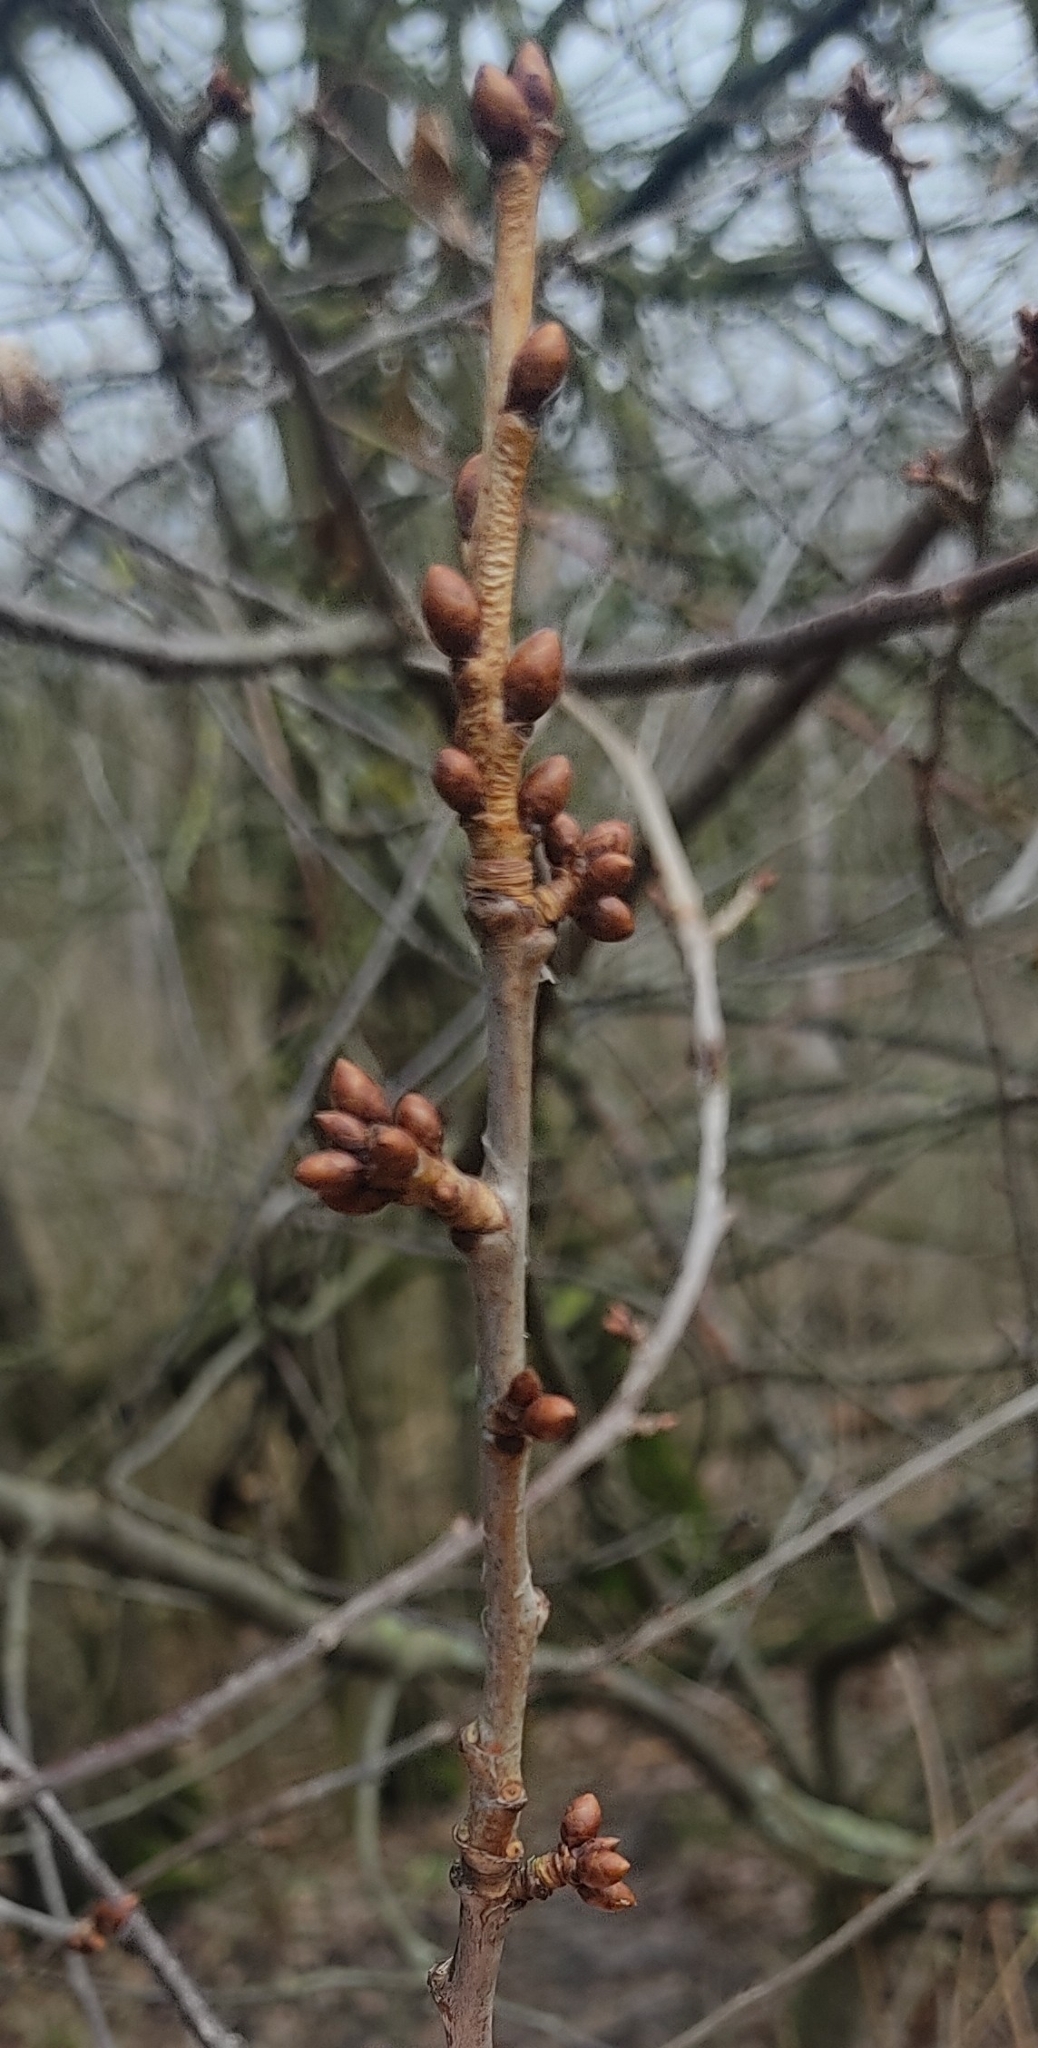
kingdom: Plantae
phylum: Tracheophyta
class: Magnoliopsida
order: Rosales
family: Rosaceae
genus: Prunus
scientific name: Prunus avium
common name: Sweet cherry
